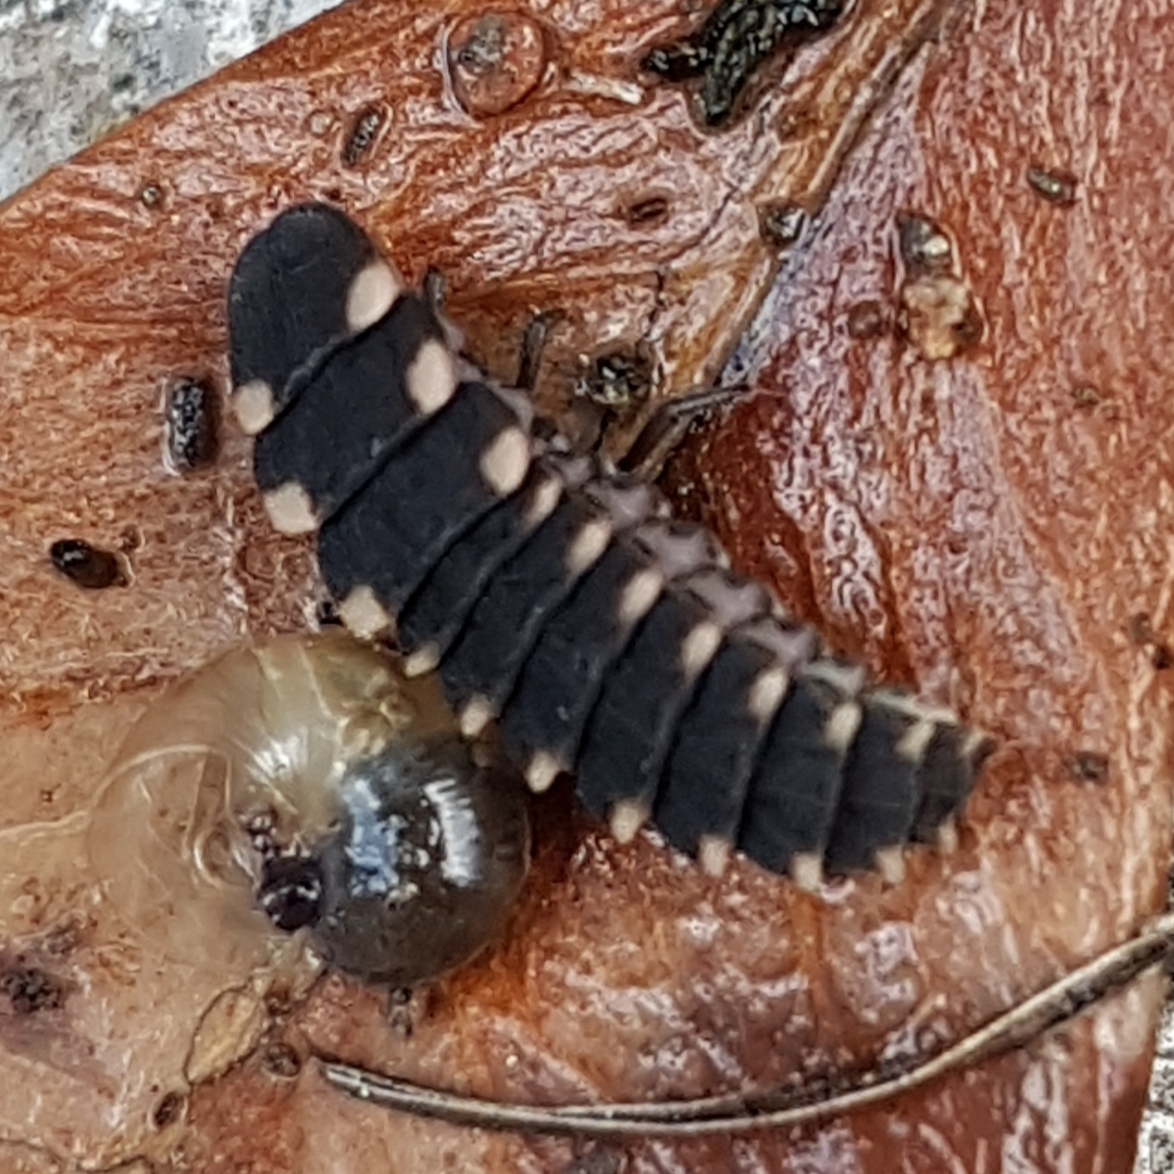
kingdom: Animalia
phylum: Arthropoda
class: Insecta
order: Coleoptera
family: Lampyridae
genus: Lampyris
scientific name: Lampyris noctiluca
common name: Glow-worm
